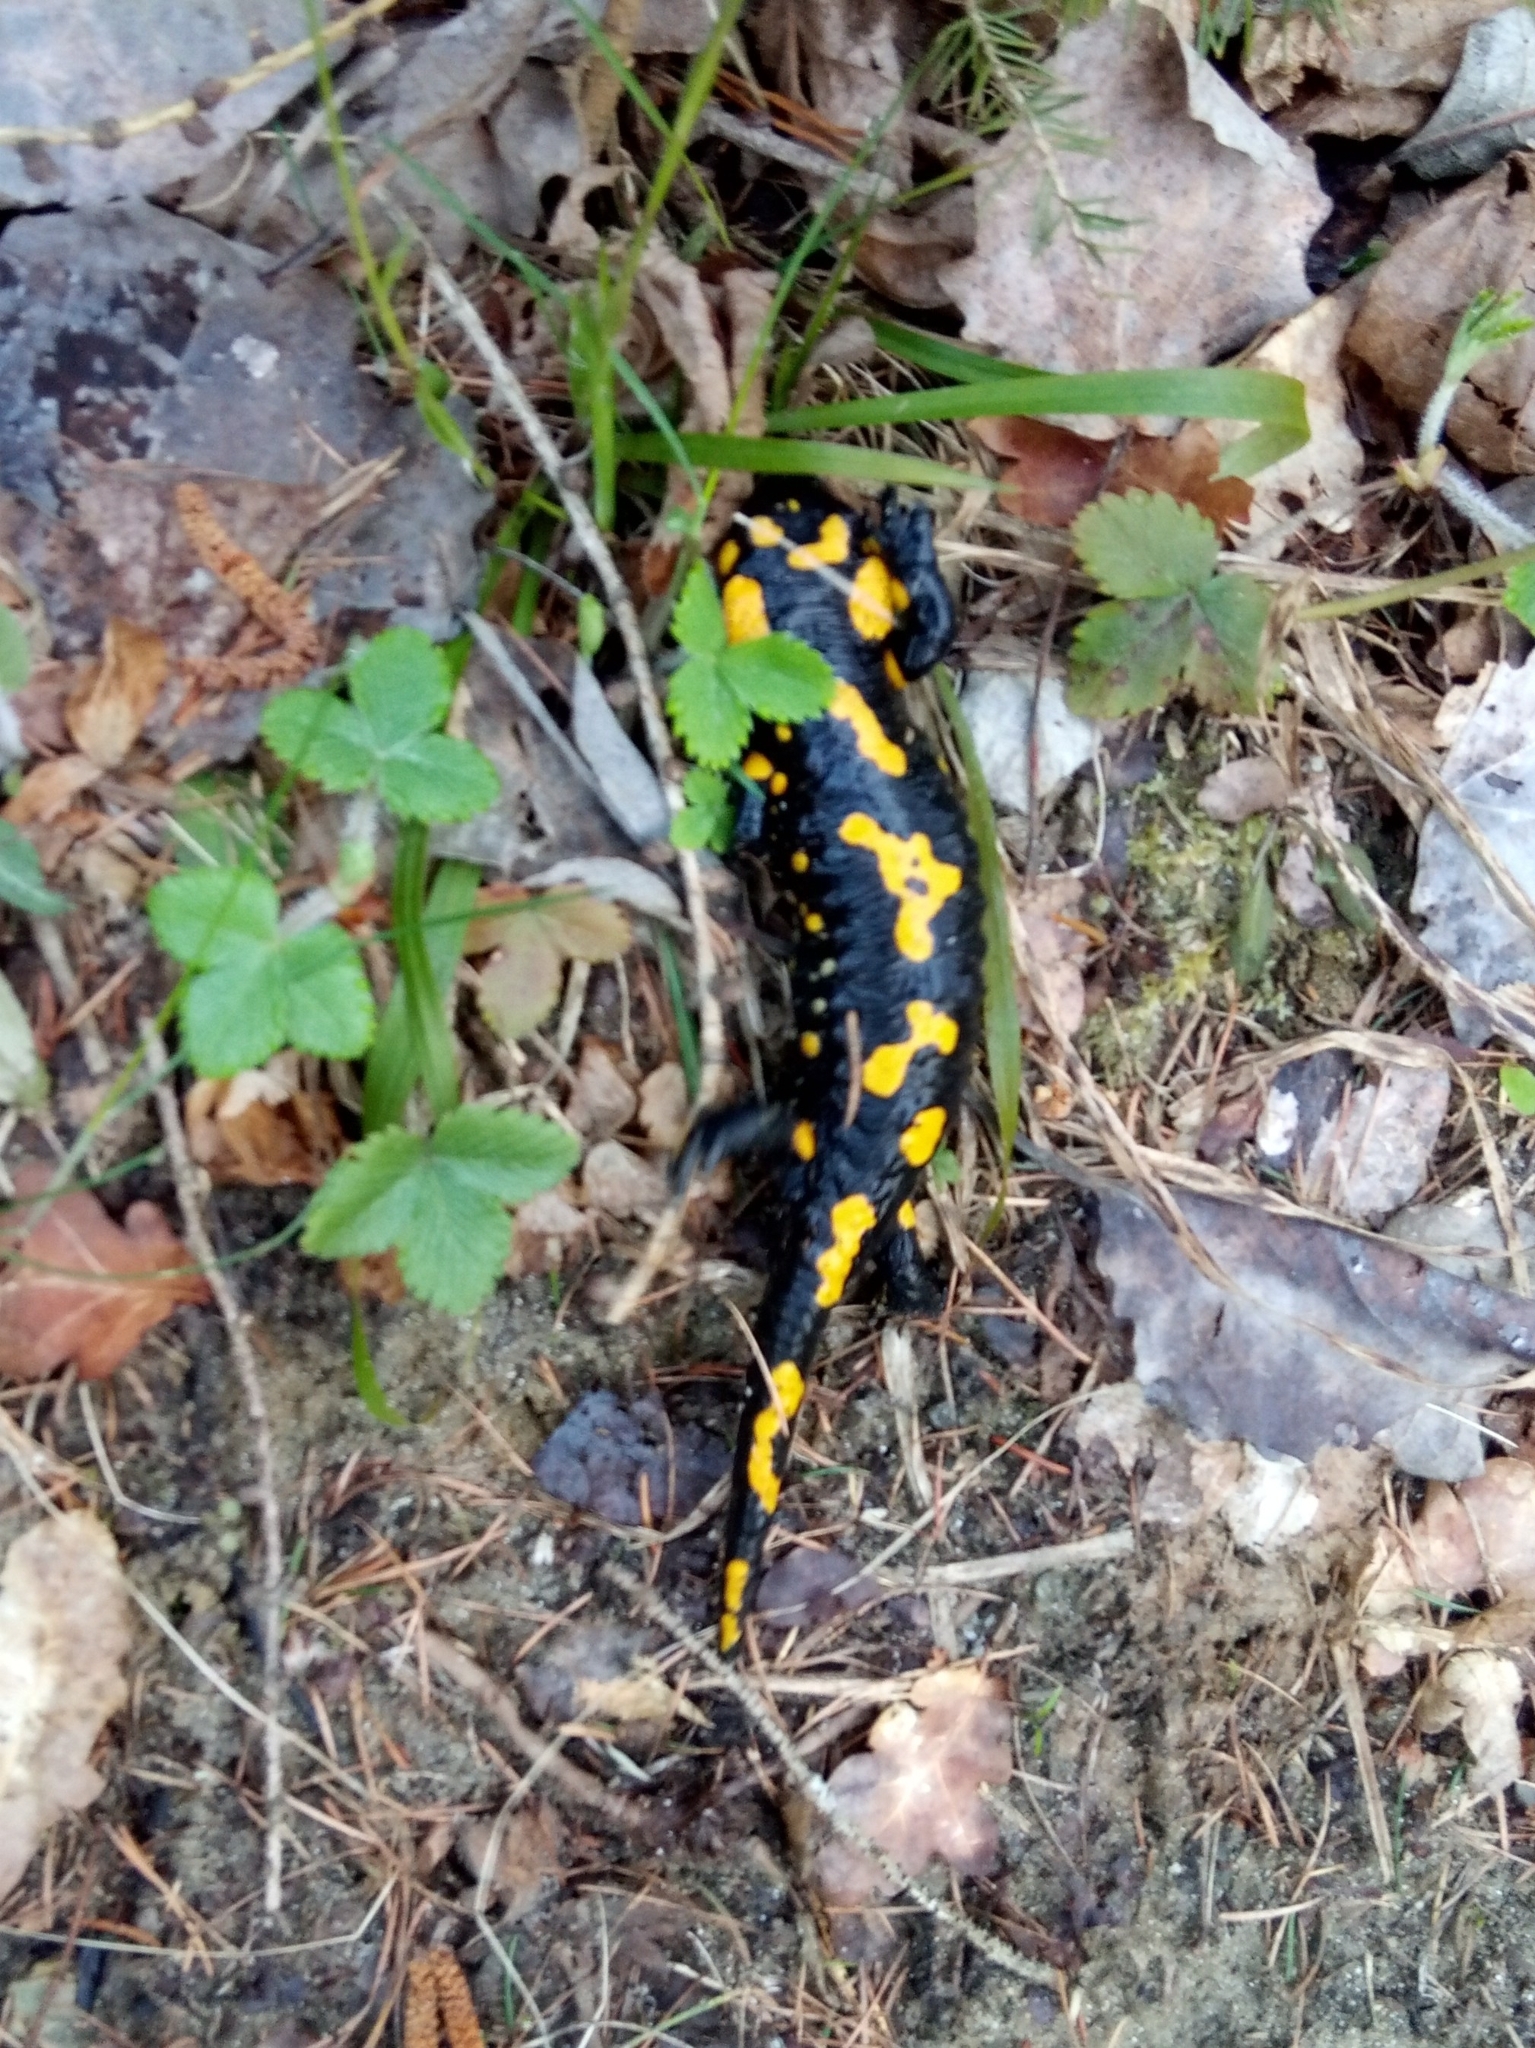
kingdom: Animalia
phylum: Chordata
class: Amphibia
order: Caudata
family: Salamandridae
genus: Salamandra
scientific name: Salamandra salamandra
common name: Fire salamander
